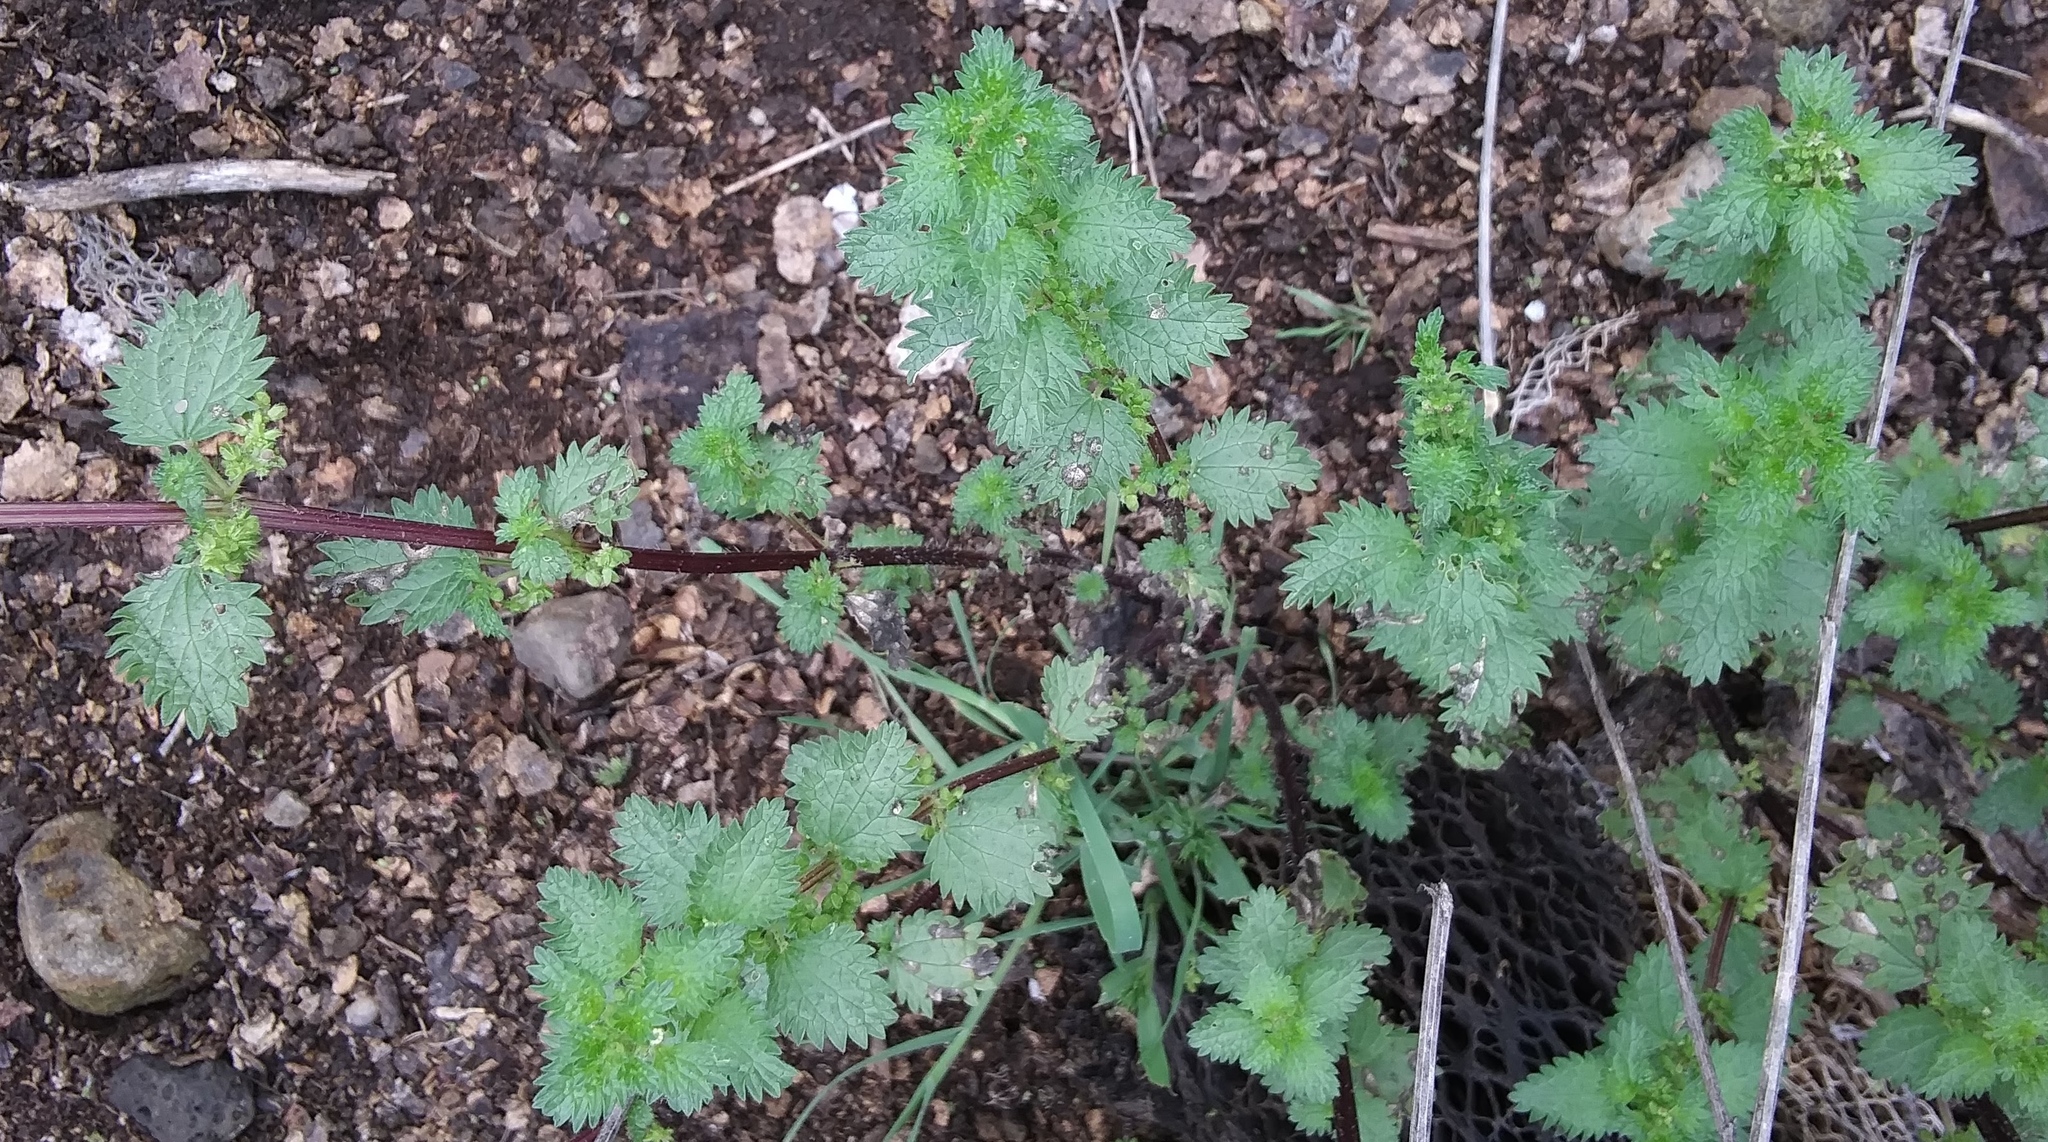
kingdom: Plantae
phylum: Tracheophyta
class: Magnoliopsida
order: Rosales
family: Urticaceae
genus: Urtica
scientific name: Urtica urens
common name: Dwarf nettle
